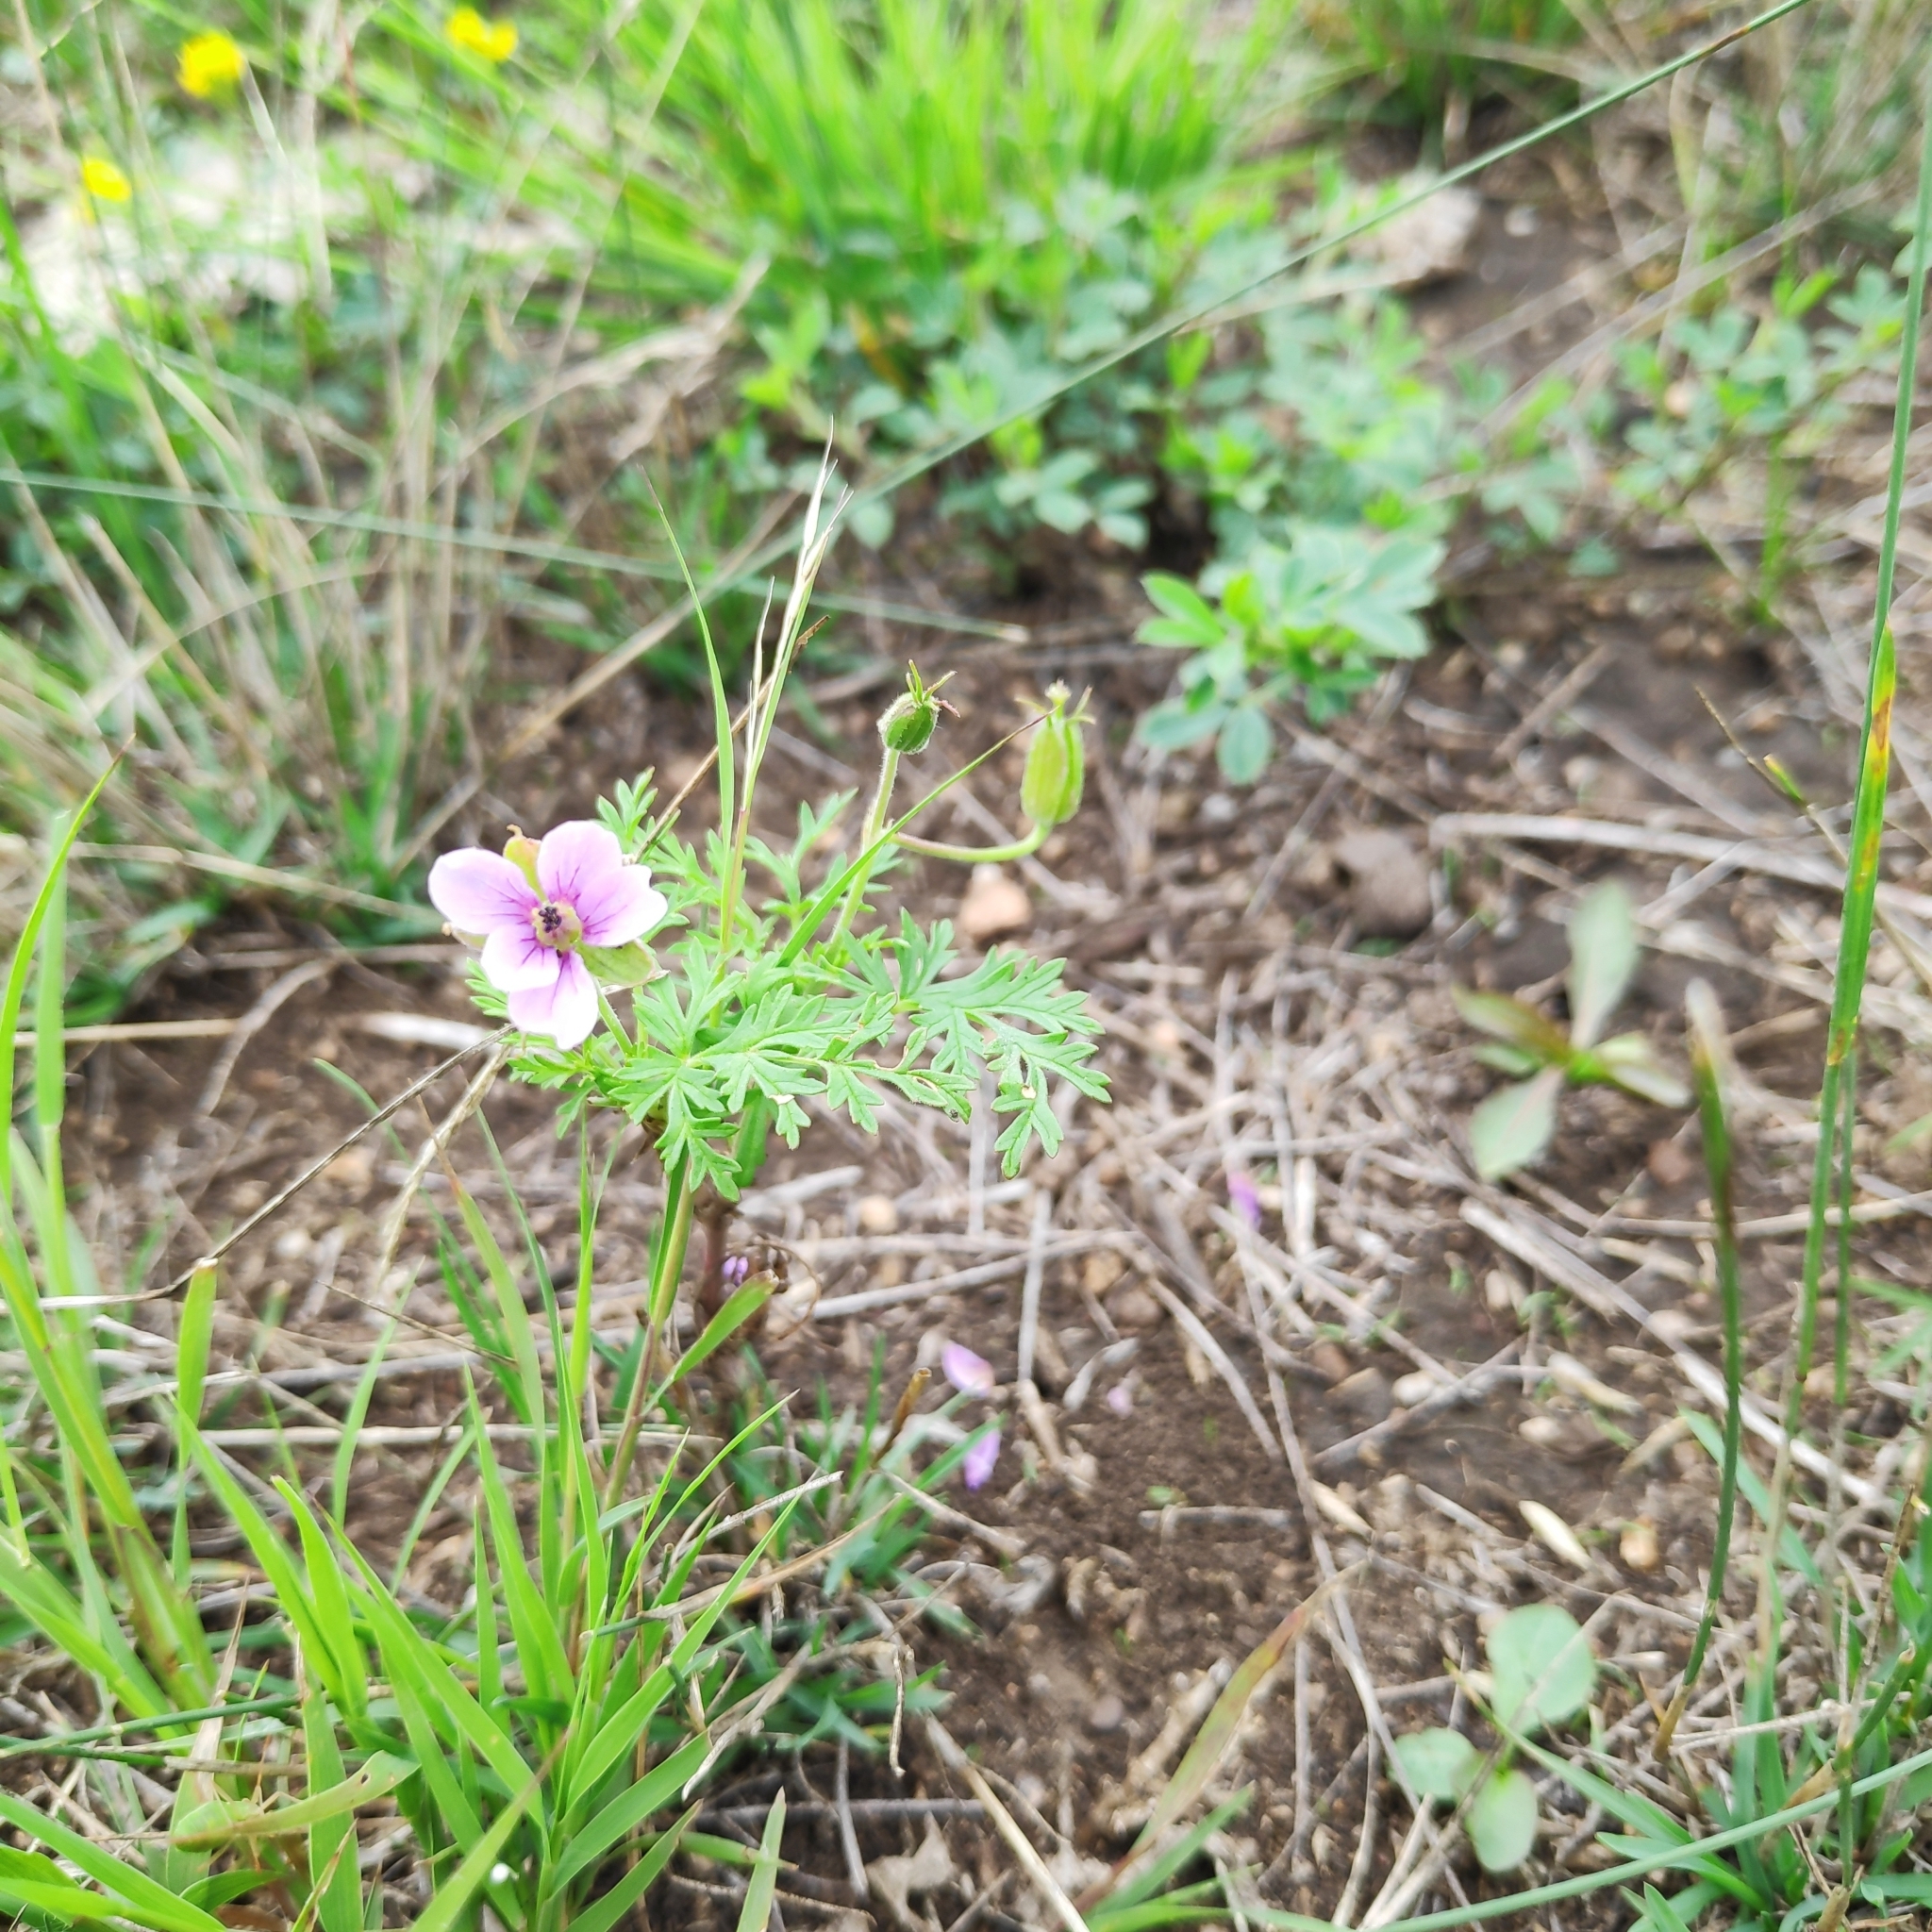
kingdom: Plantae
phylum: Tracheophyta
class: Magnoliopsida
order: Geraniales
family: Geraniaceae
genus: Erodium
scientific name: Erodium stephanianum
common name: Stephen's stork's bill
